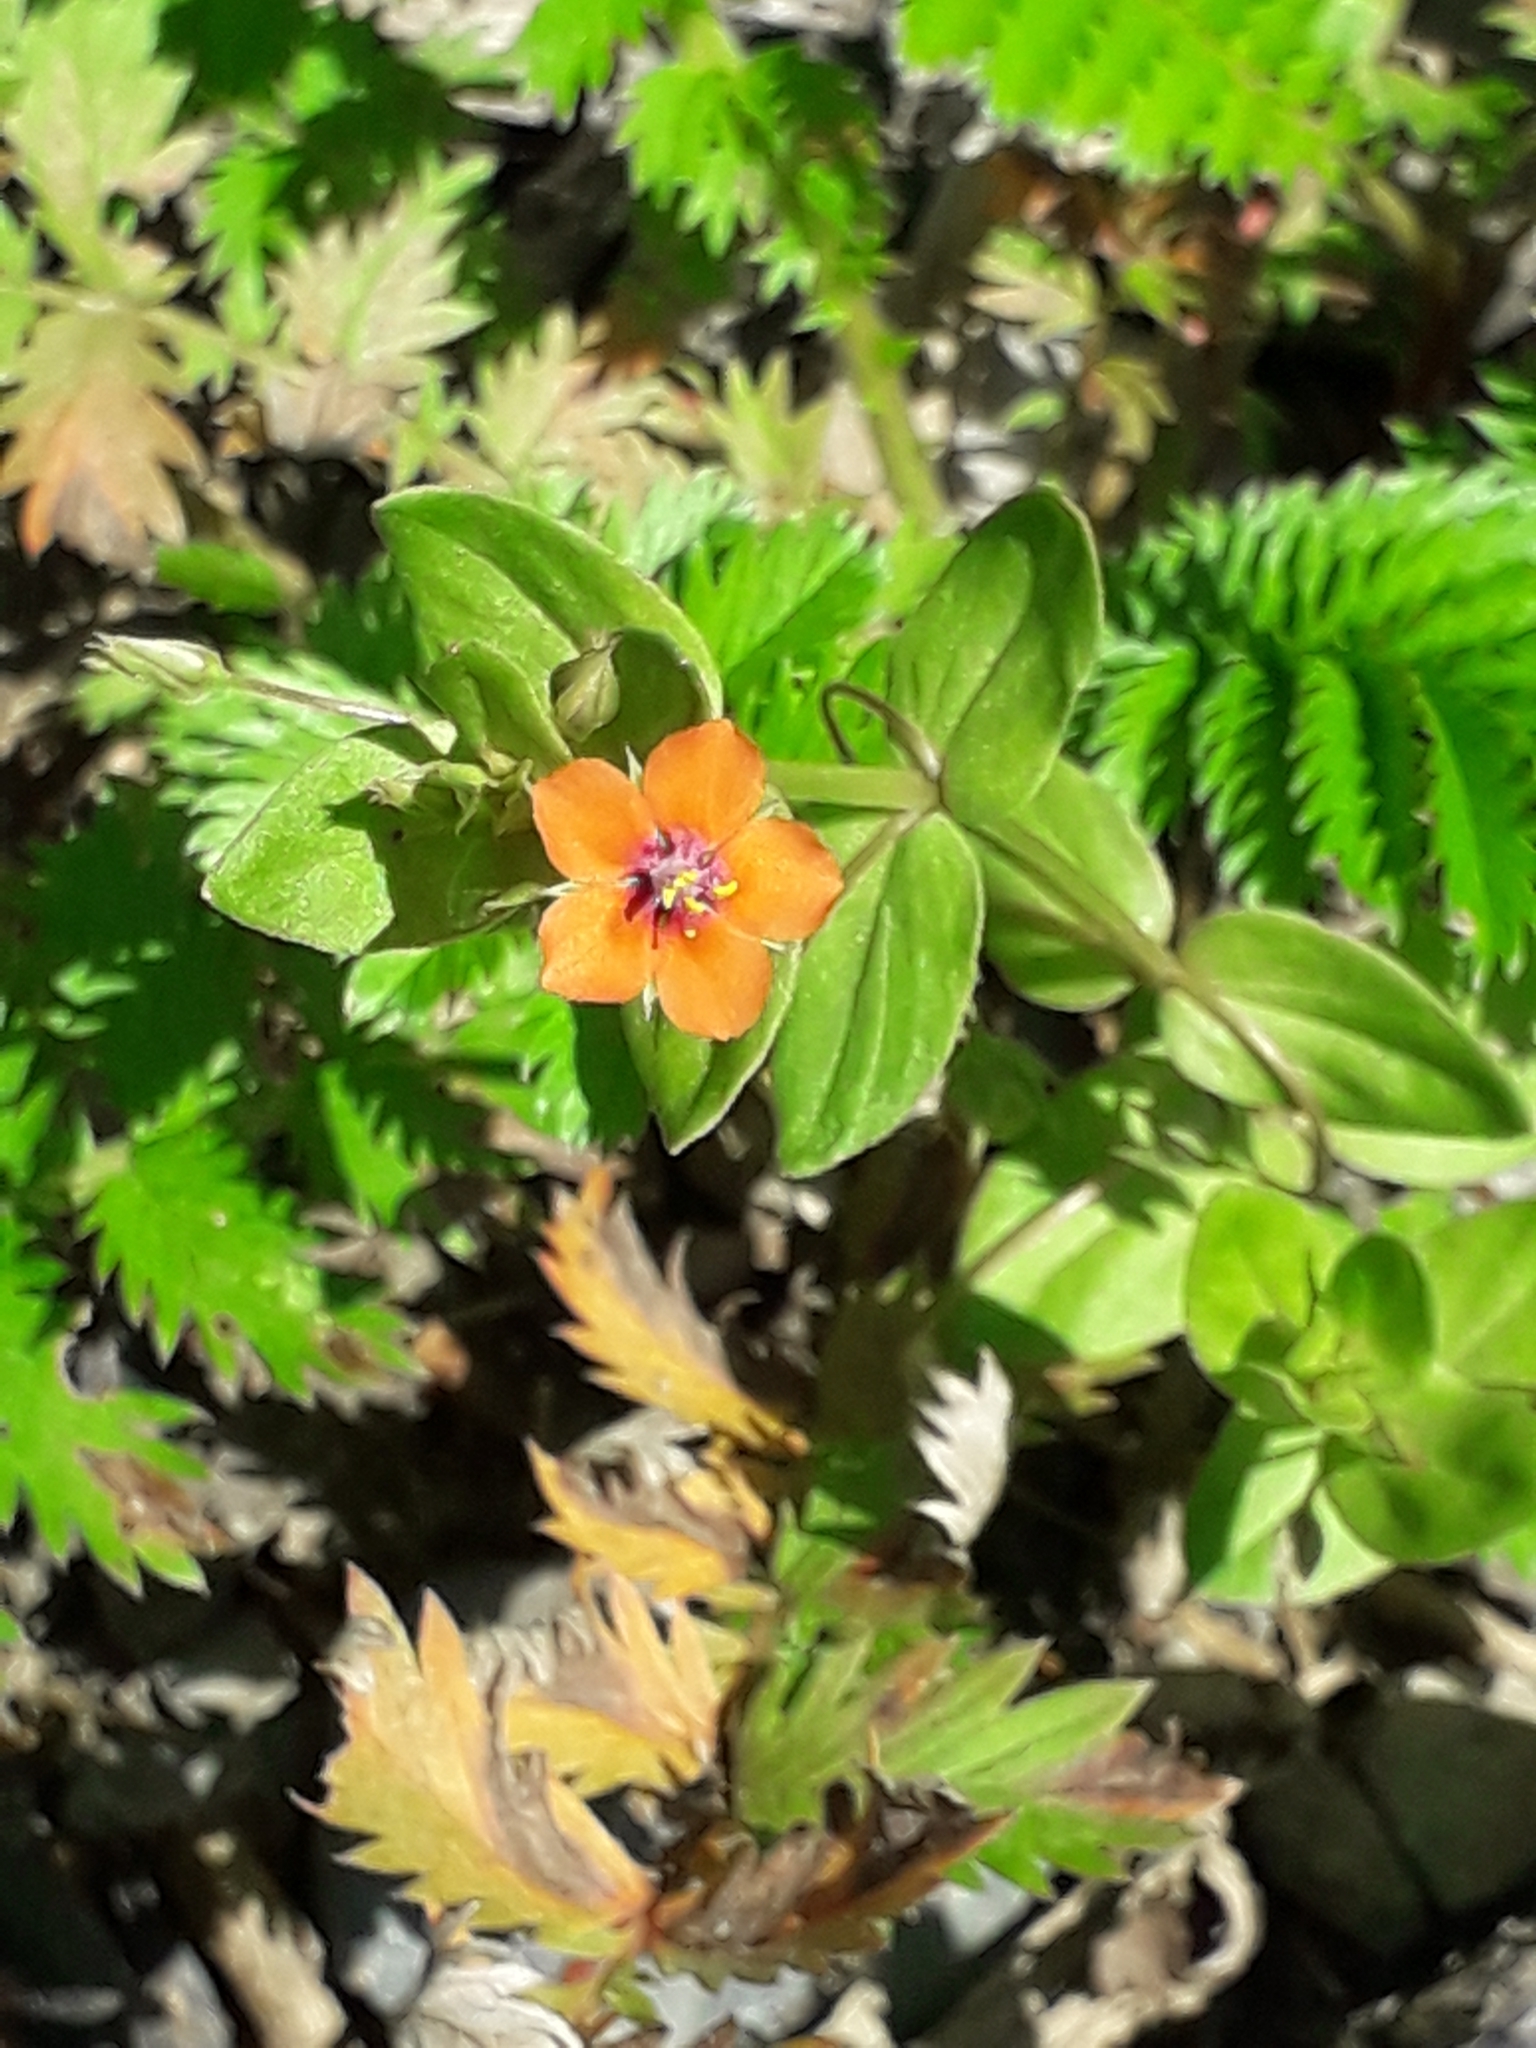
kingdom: Plantae
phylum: Tracheophyta
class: Magnoliopsida
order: Ericales
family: Primulaceae
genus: Lysimachia
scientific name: Lysimachia arvensis
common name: Scarlet pimpernel
